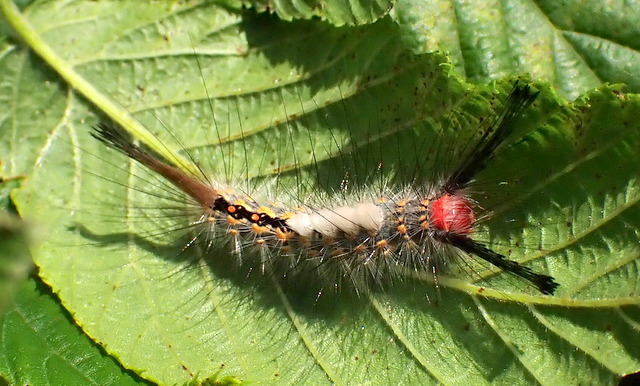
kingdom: Animalia
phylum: Arthropoda
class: Insecta
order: Lepidoptera
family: Erebidae
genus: Orgyia
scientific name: Orgyia detrita
